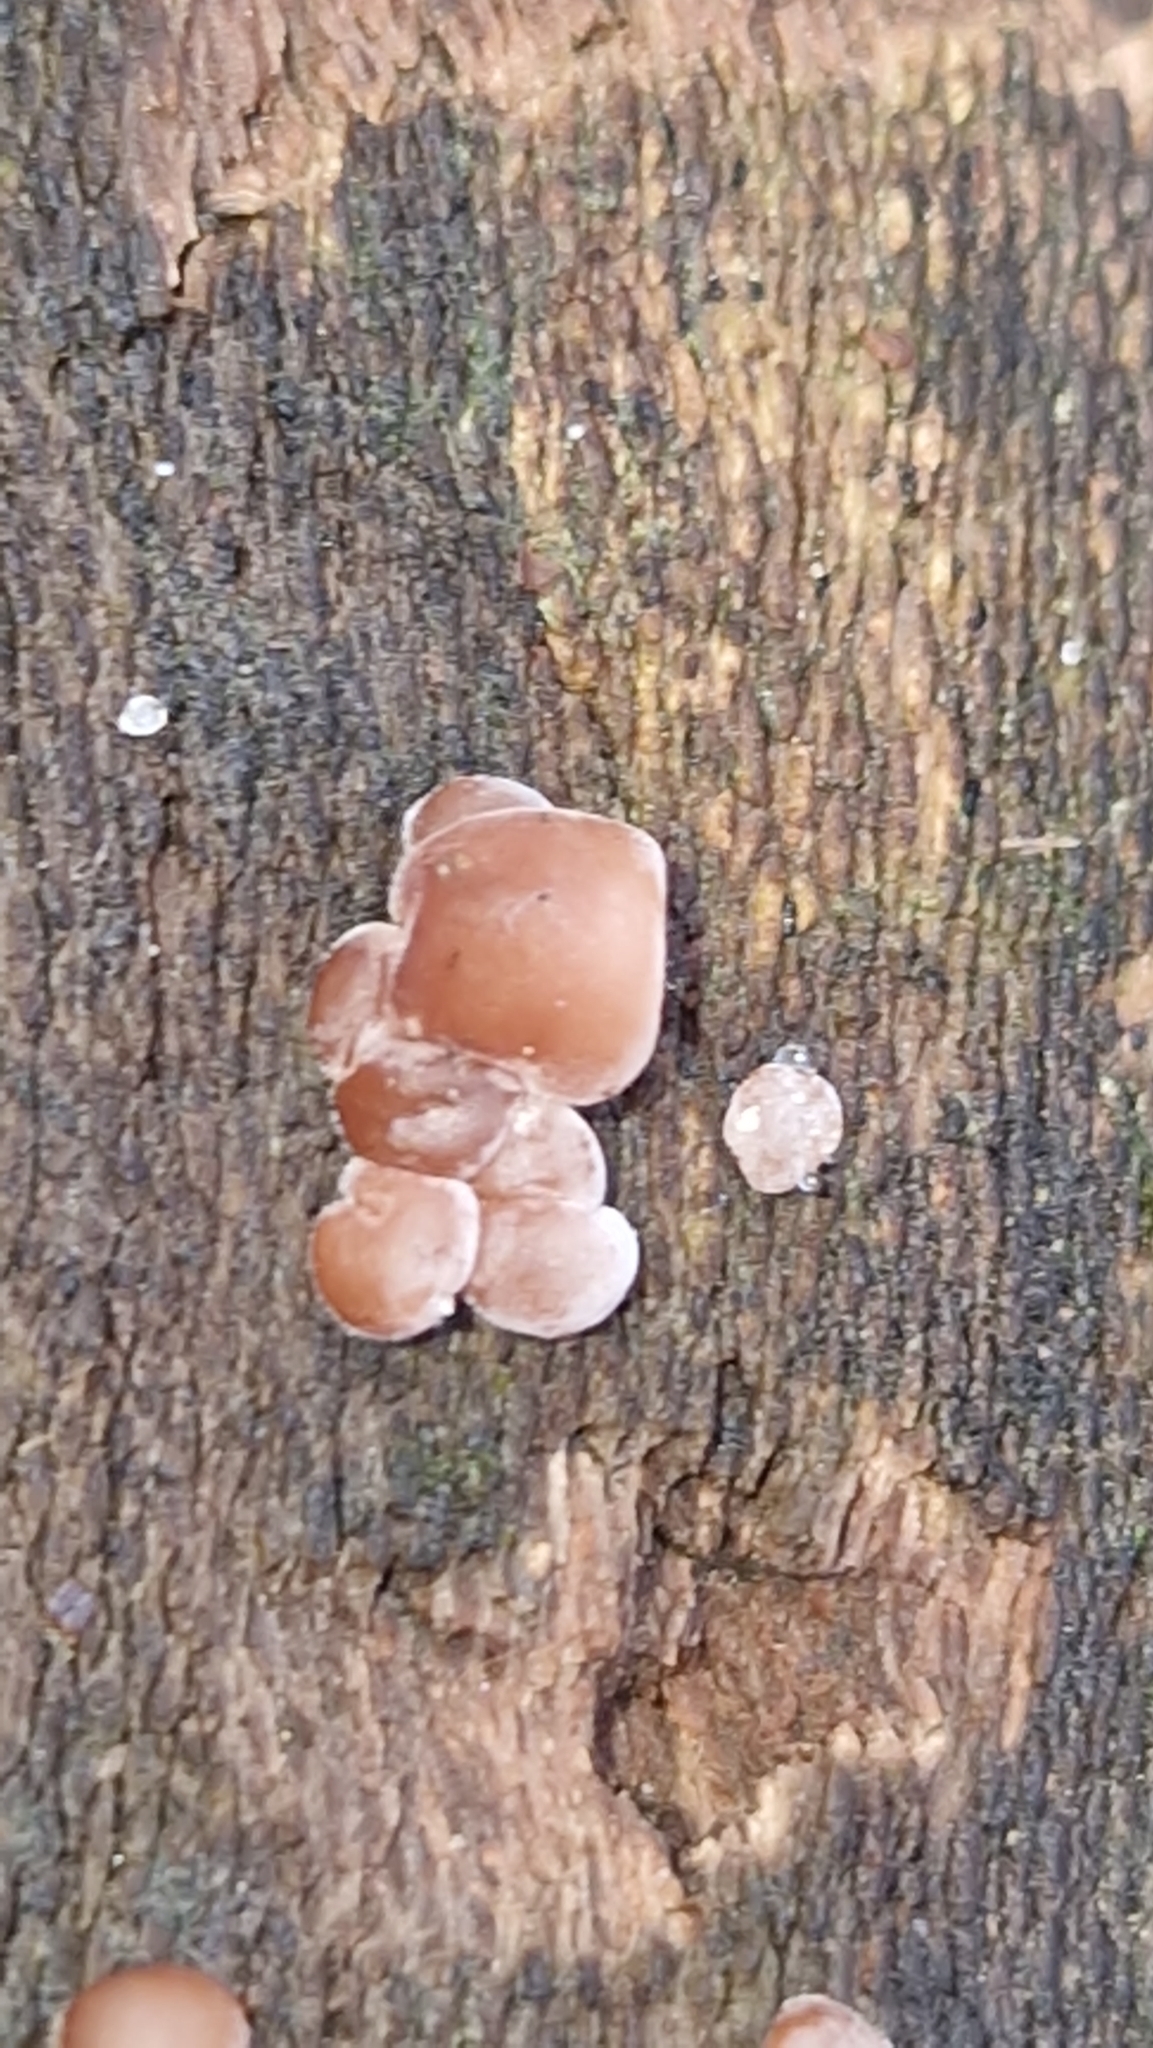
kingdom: Fungi
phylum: Basidiomycota
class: Agaricomycetes
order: Auriculariales
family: Auriculariaceae
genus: Auricularia
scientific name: Auricularia auricula-judae
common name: Jelly ear
